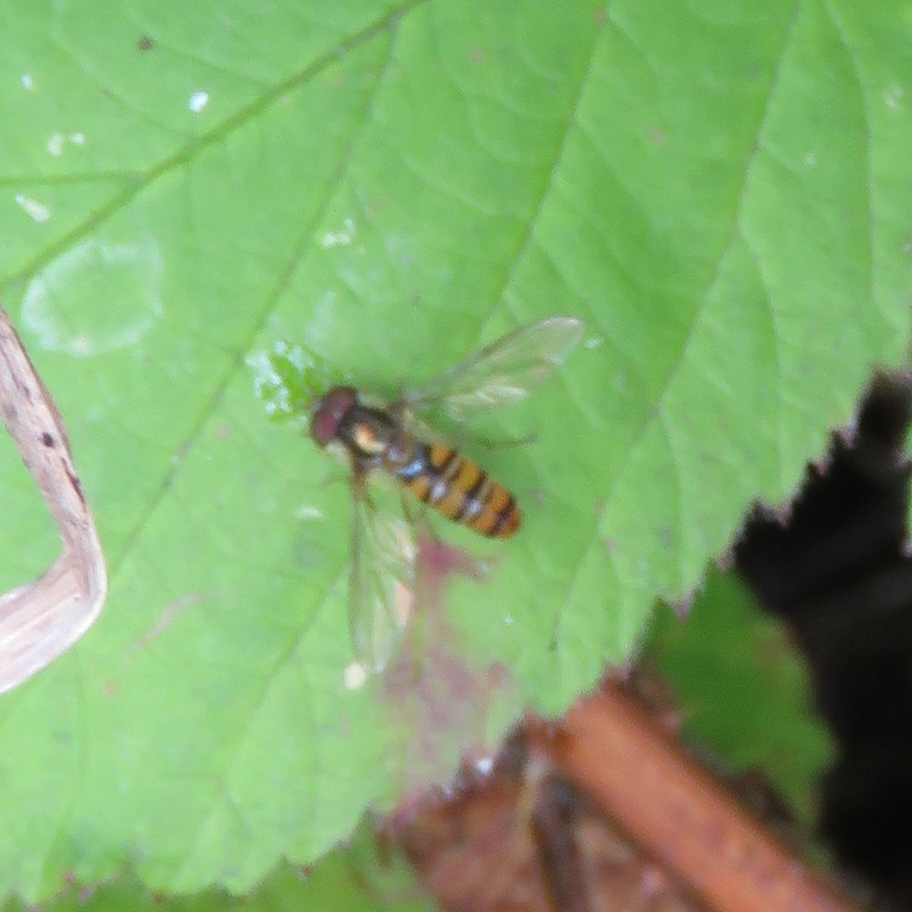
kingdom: Animalia
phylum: Arthropoda
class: Insecta
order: Diptera
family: Syrphidae
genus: Episyrphus
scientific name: Episyrphus balteatus
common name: Marmalade hoverfly
